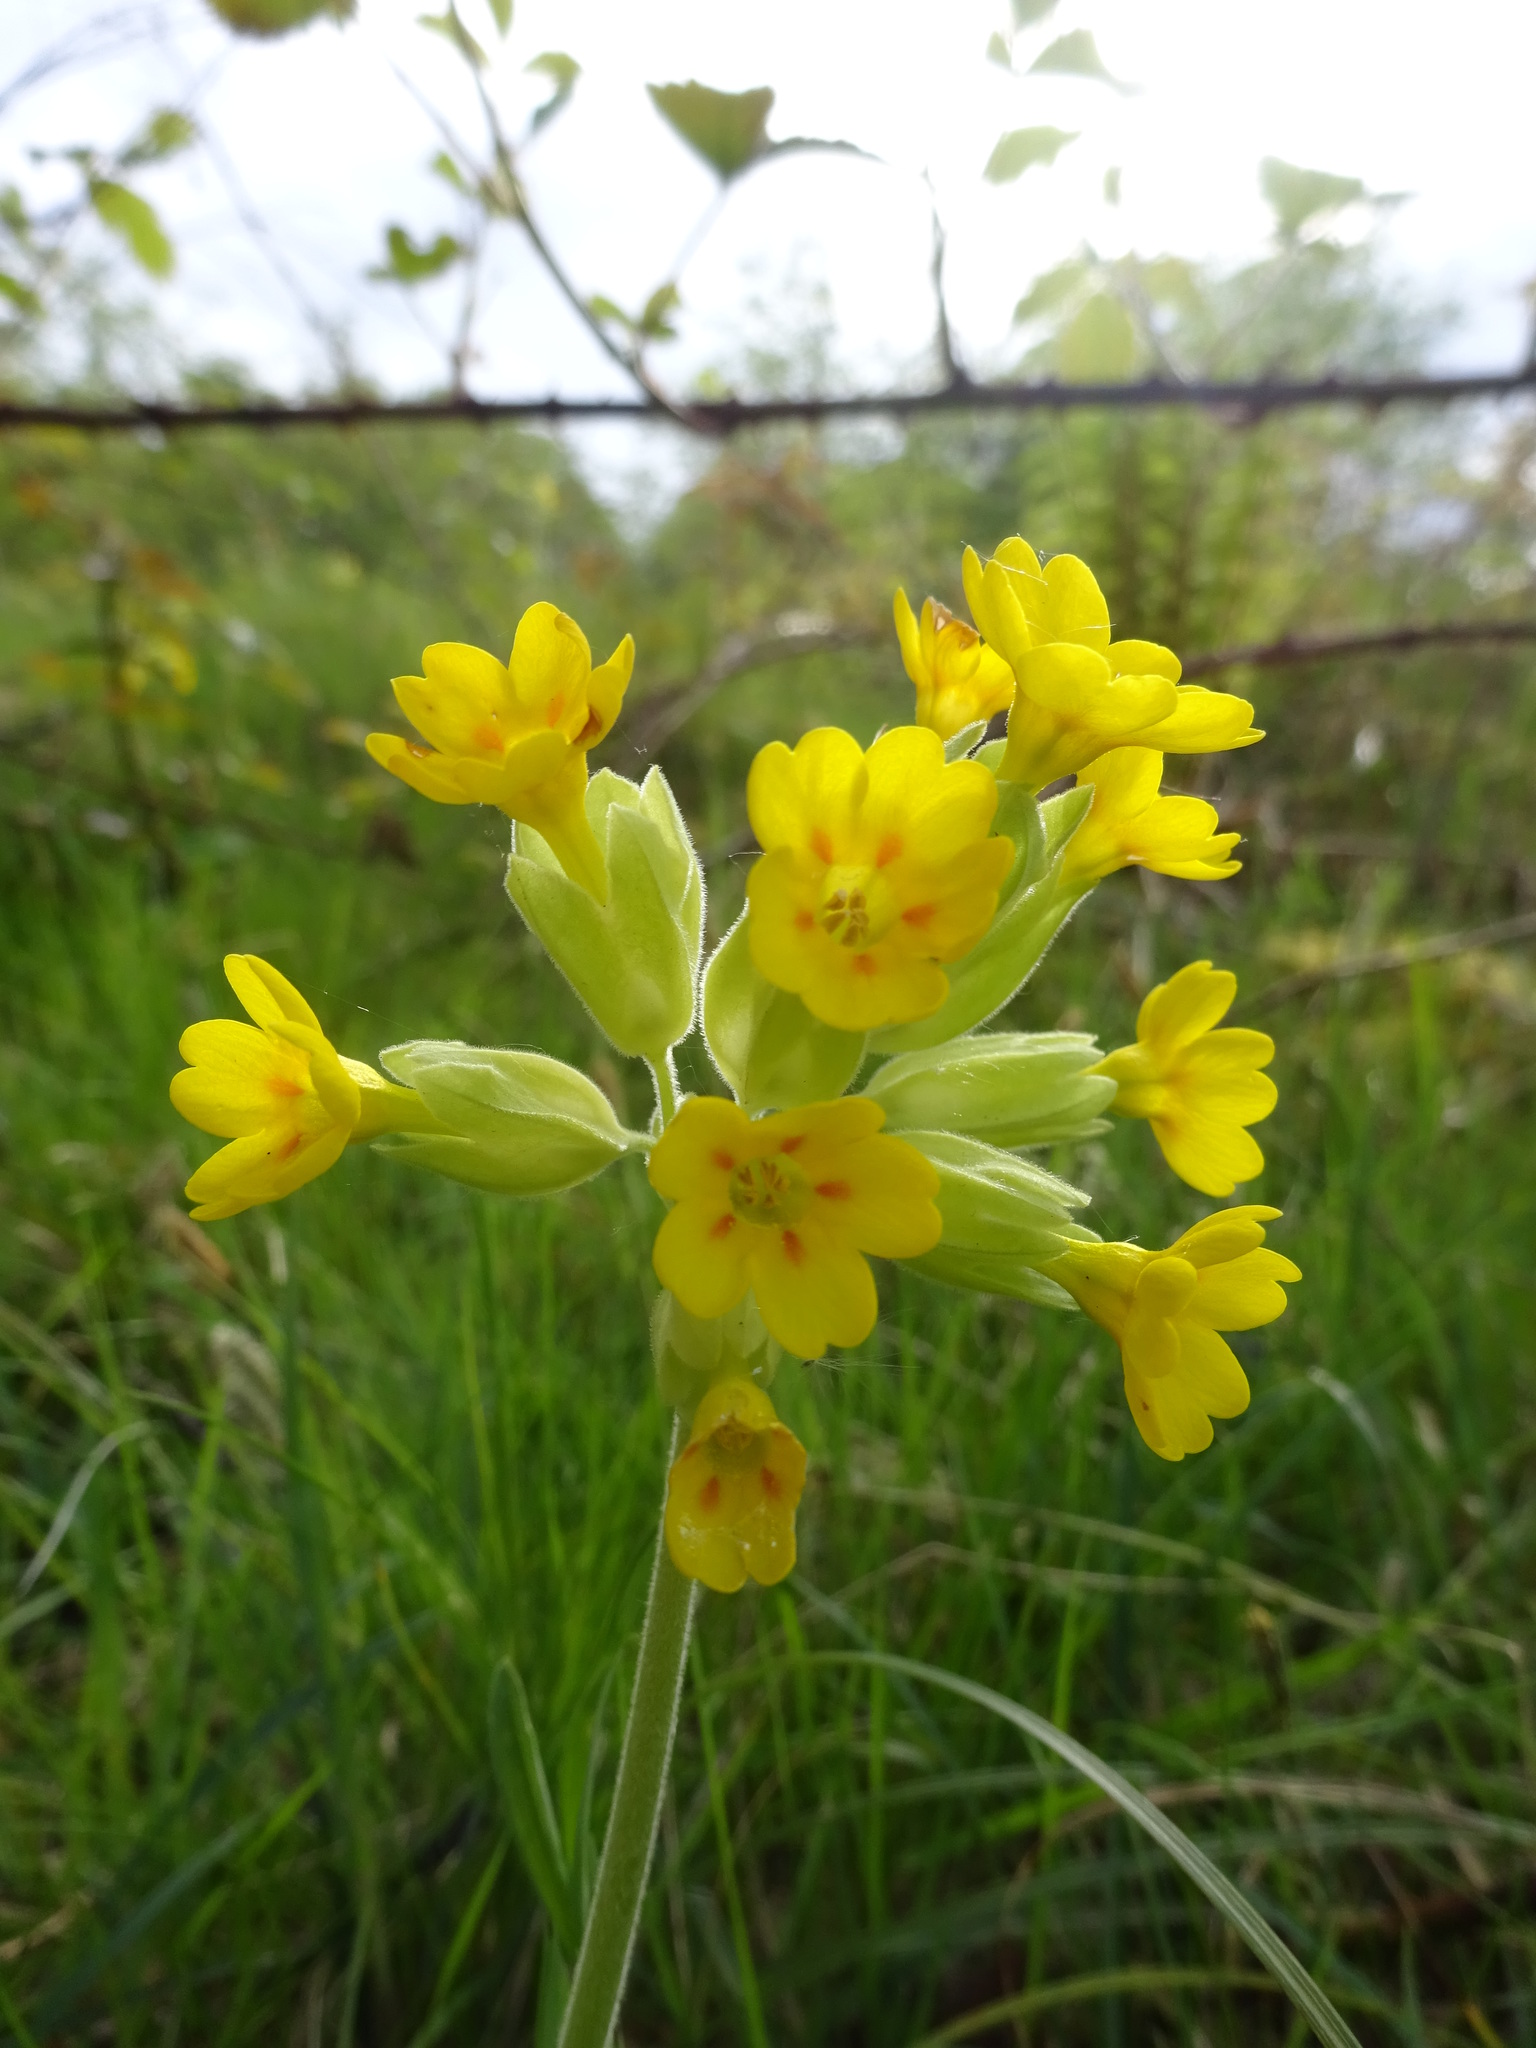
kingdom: Plantae
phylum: Tracheophyta
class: Magnoliopsida
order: Ericales
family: Primulaceae
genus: Primula
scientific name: Primula veris
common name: Cowslip
